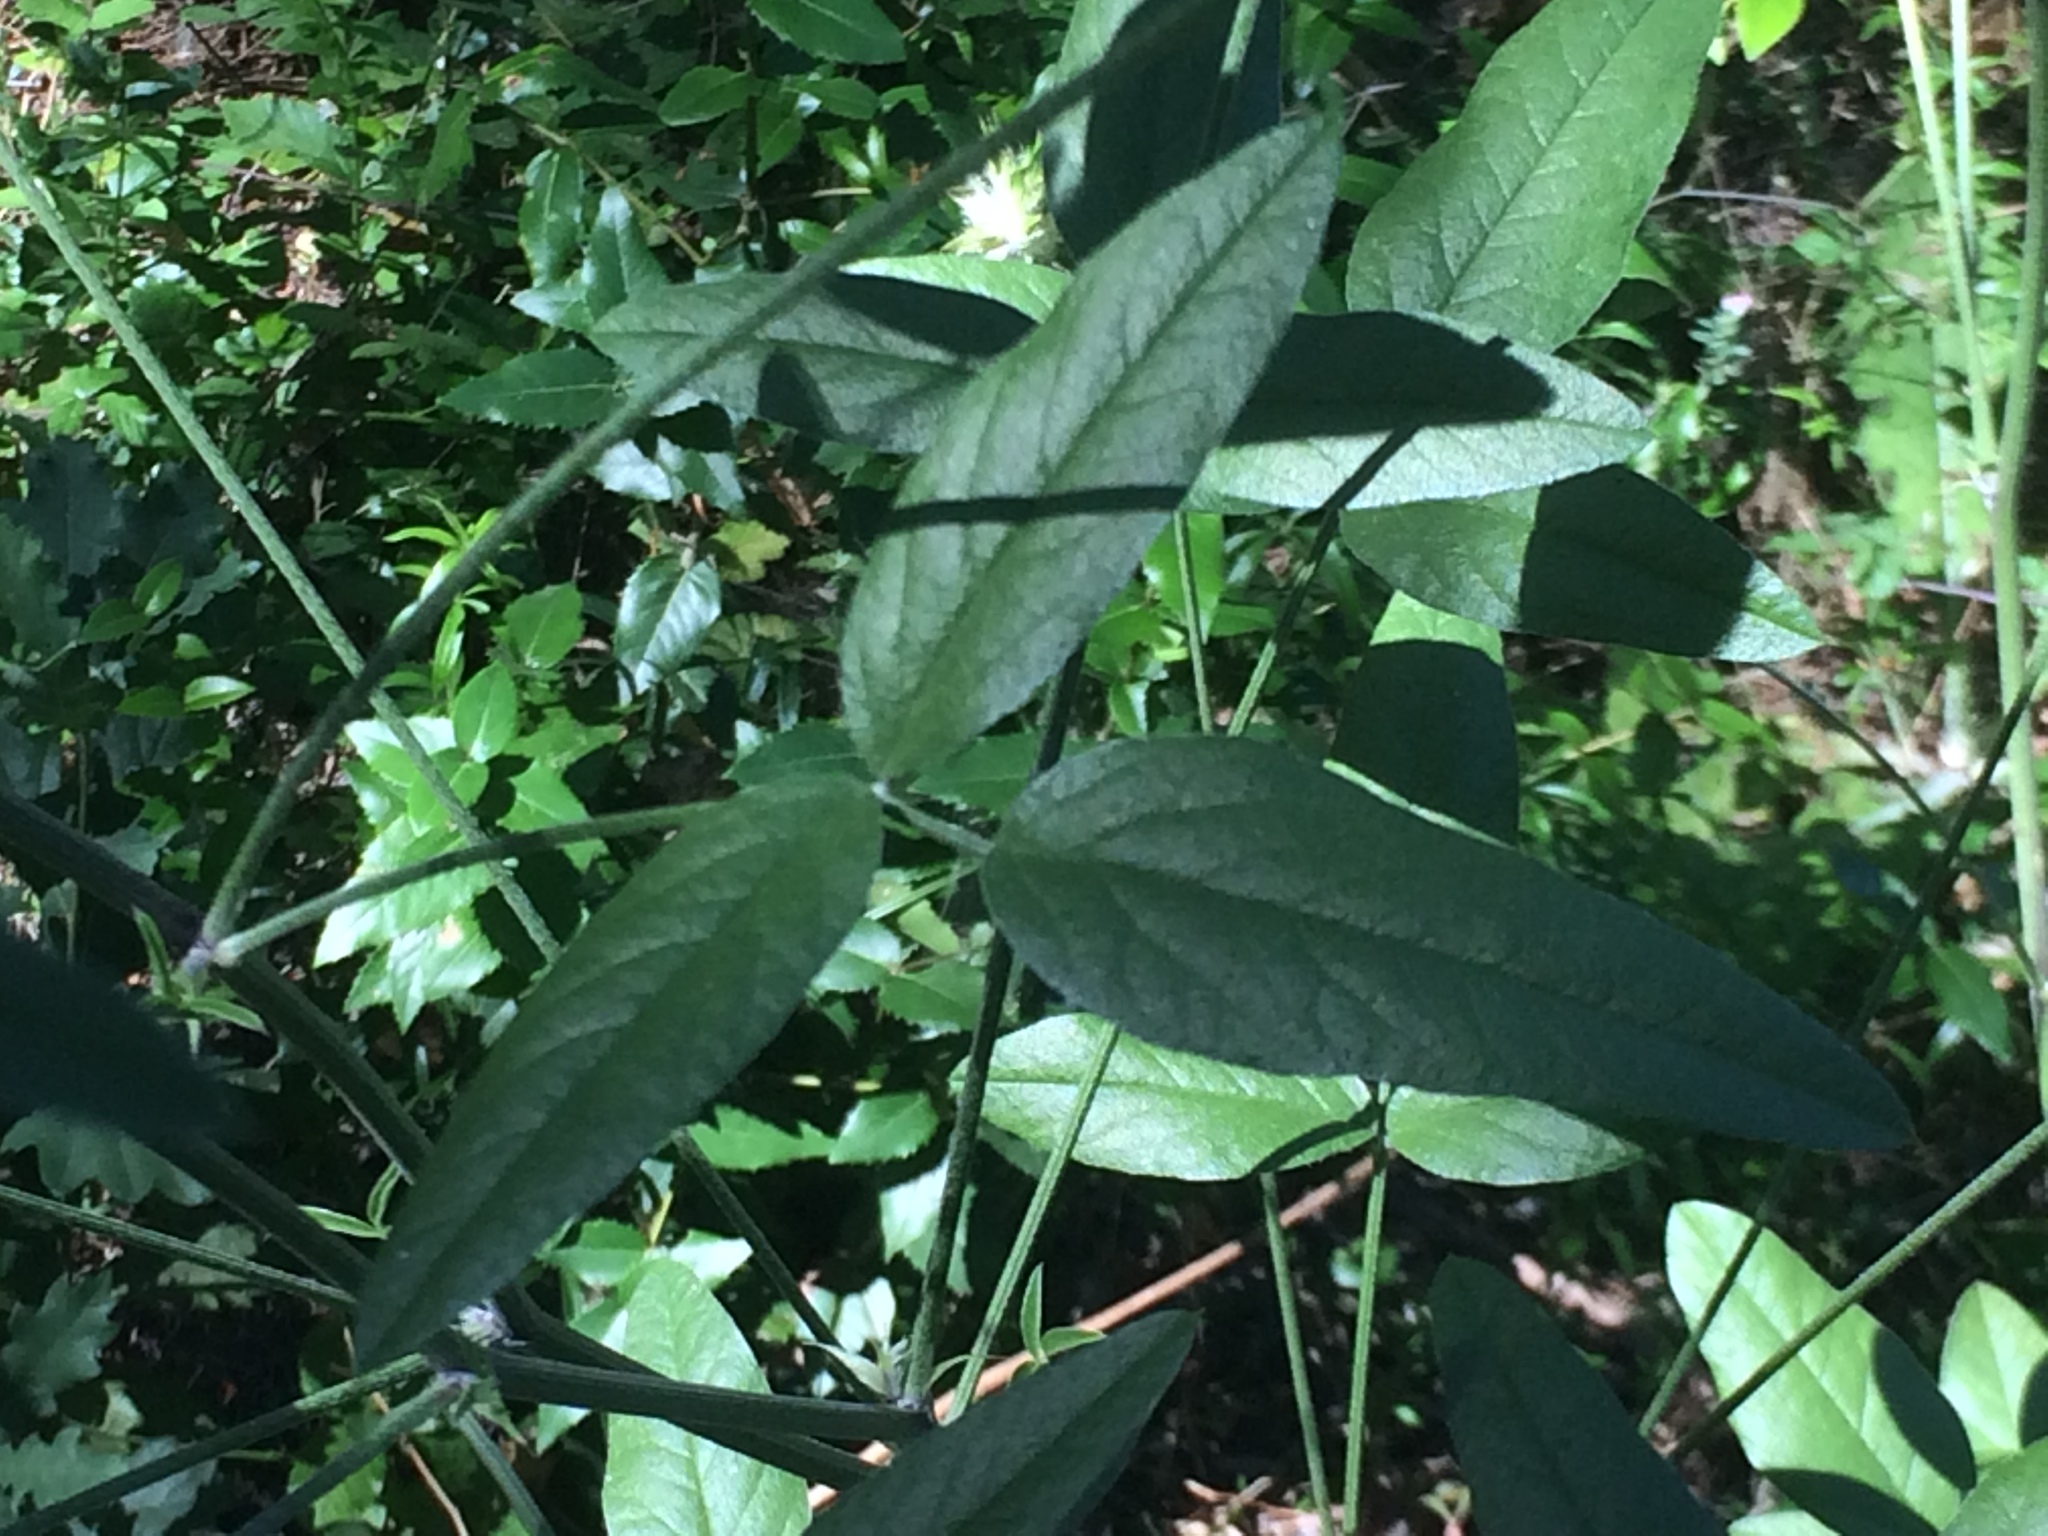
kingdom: Plantae
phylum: Tracheophyta
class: Magnoliopsida
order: Fabales
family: Fabaceae
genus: Bituminaria
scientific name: Bituminaria bituminosa
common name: Arabian pea
